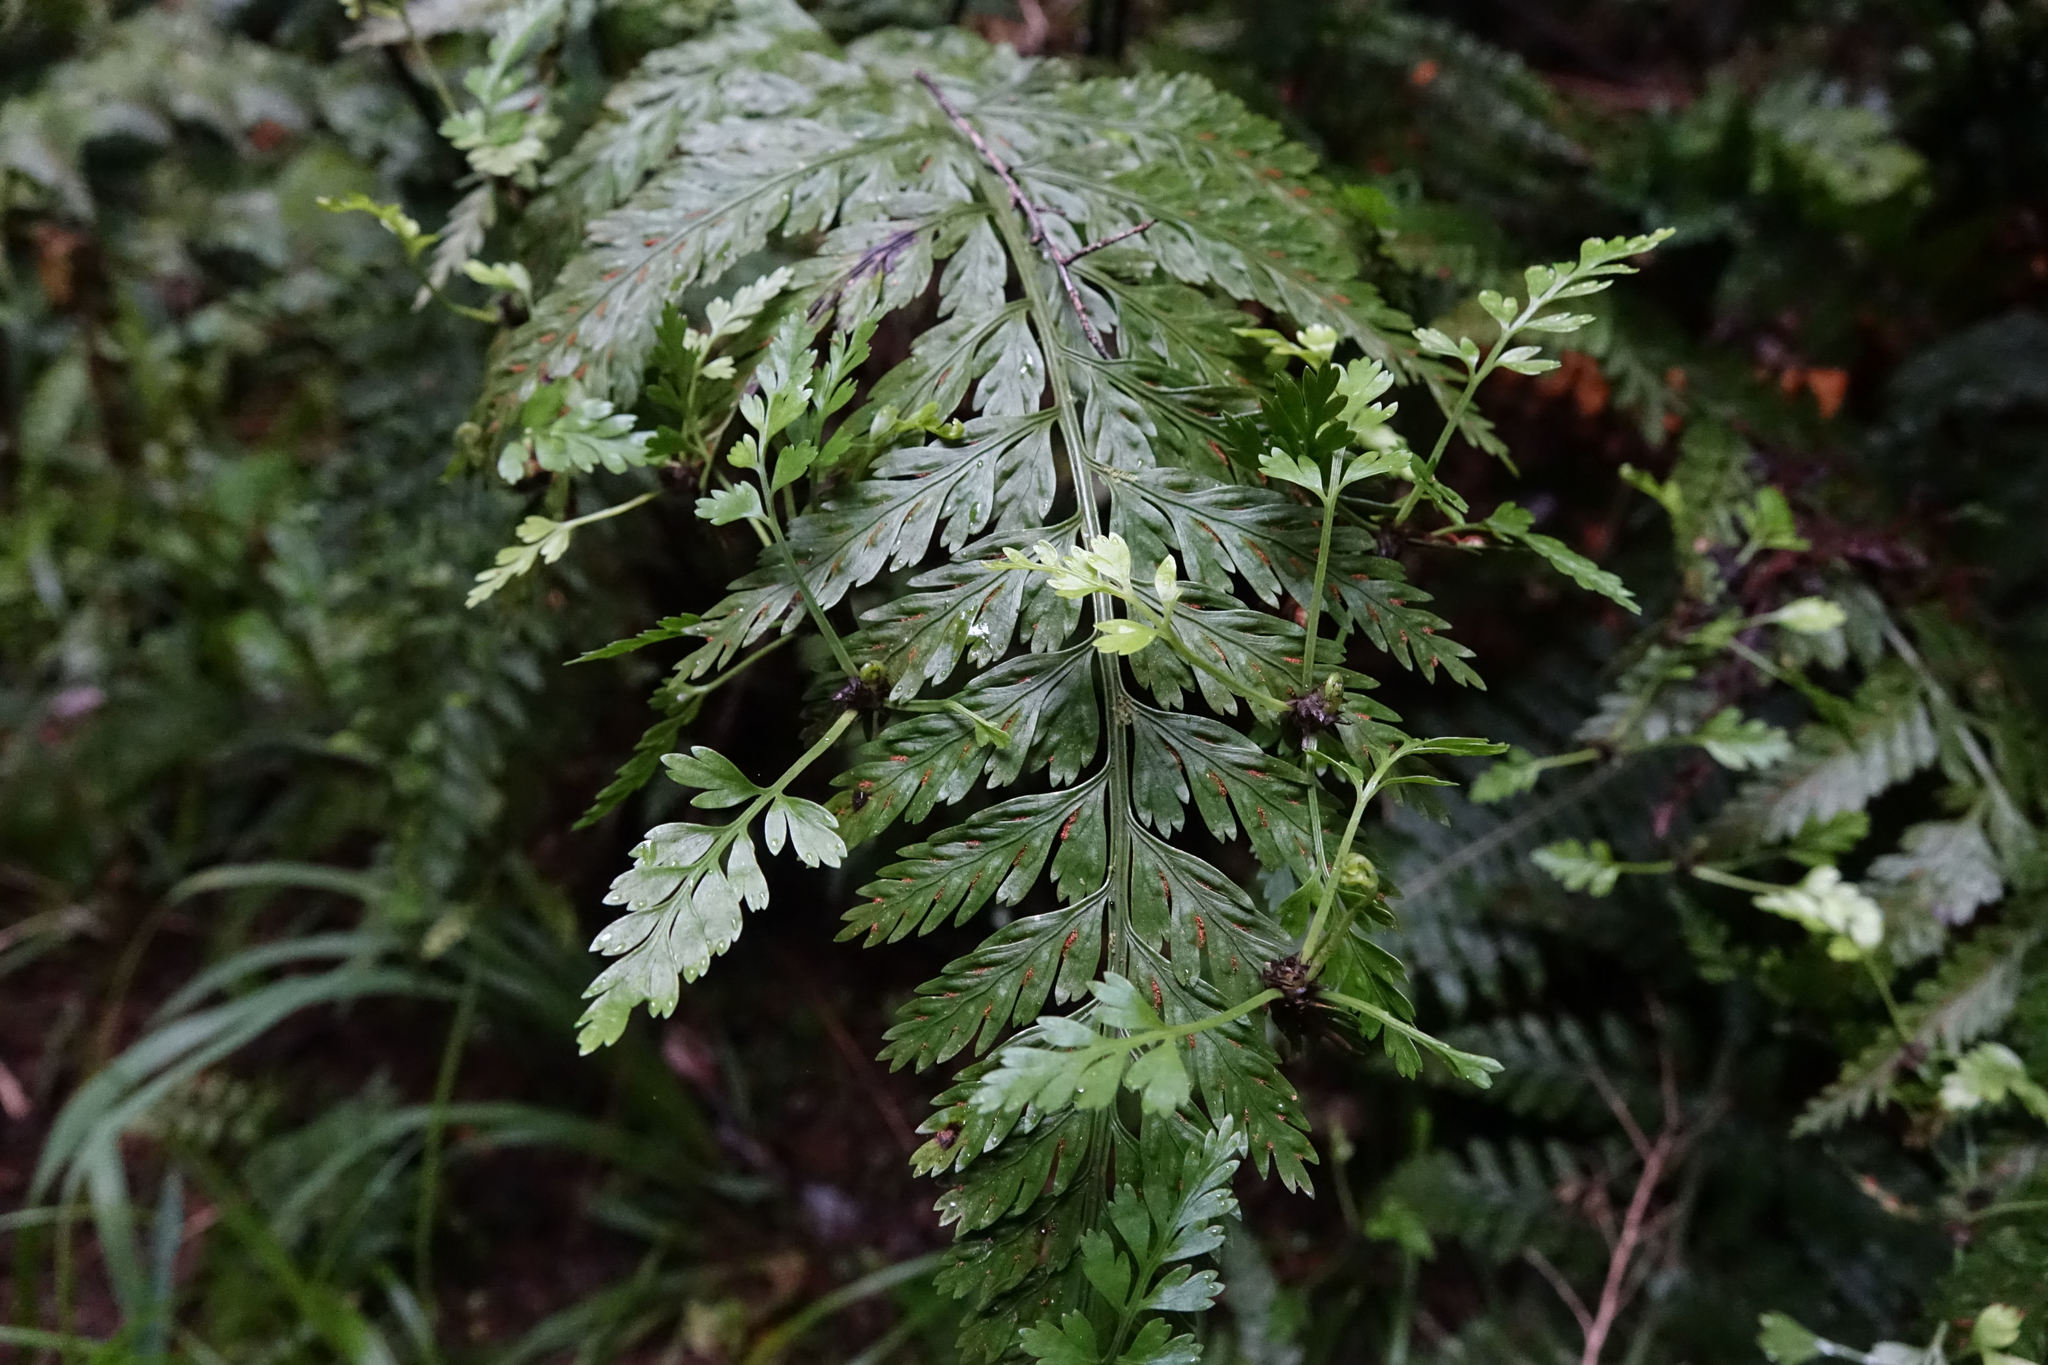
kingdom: Plantae
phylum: Tracheophyta
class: Polypodiopsida
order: Polypodiales
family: Aspleniaceae
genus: Asplenium
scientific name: Asplenium bulbiferum
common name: Mother fern
